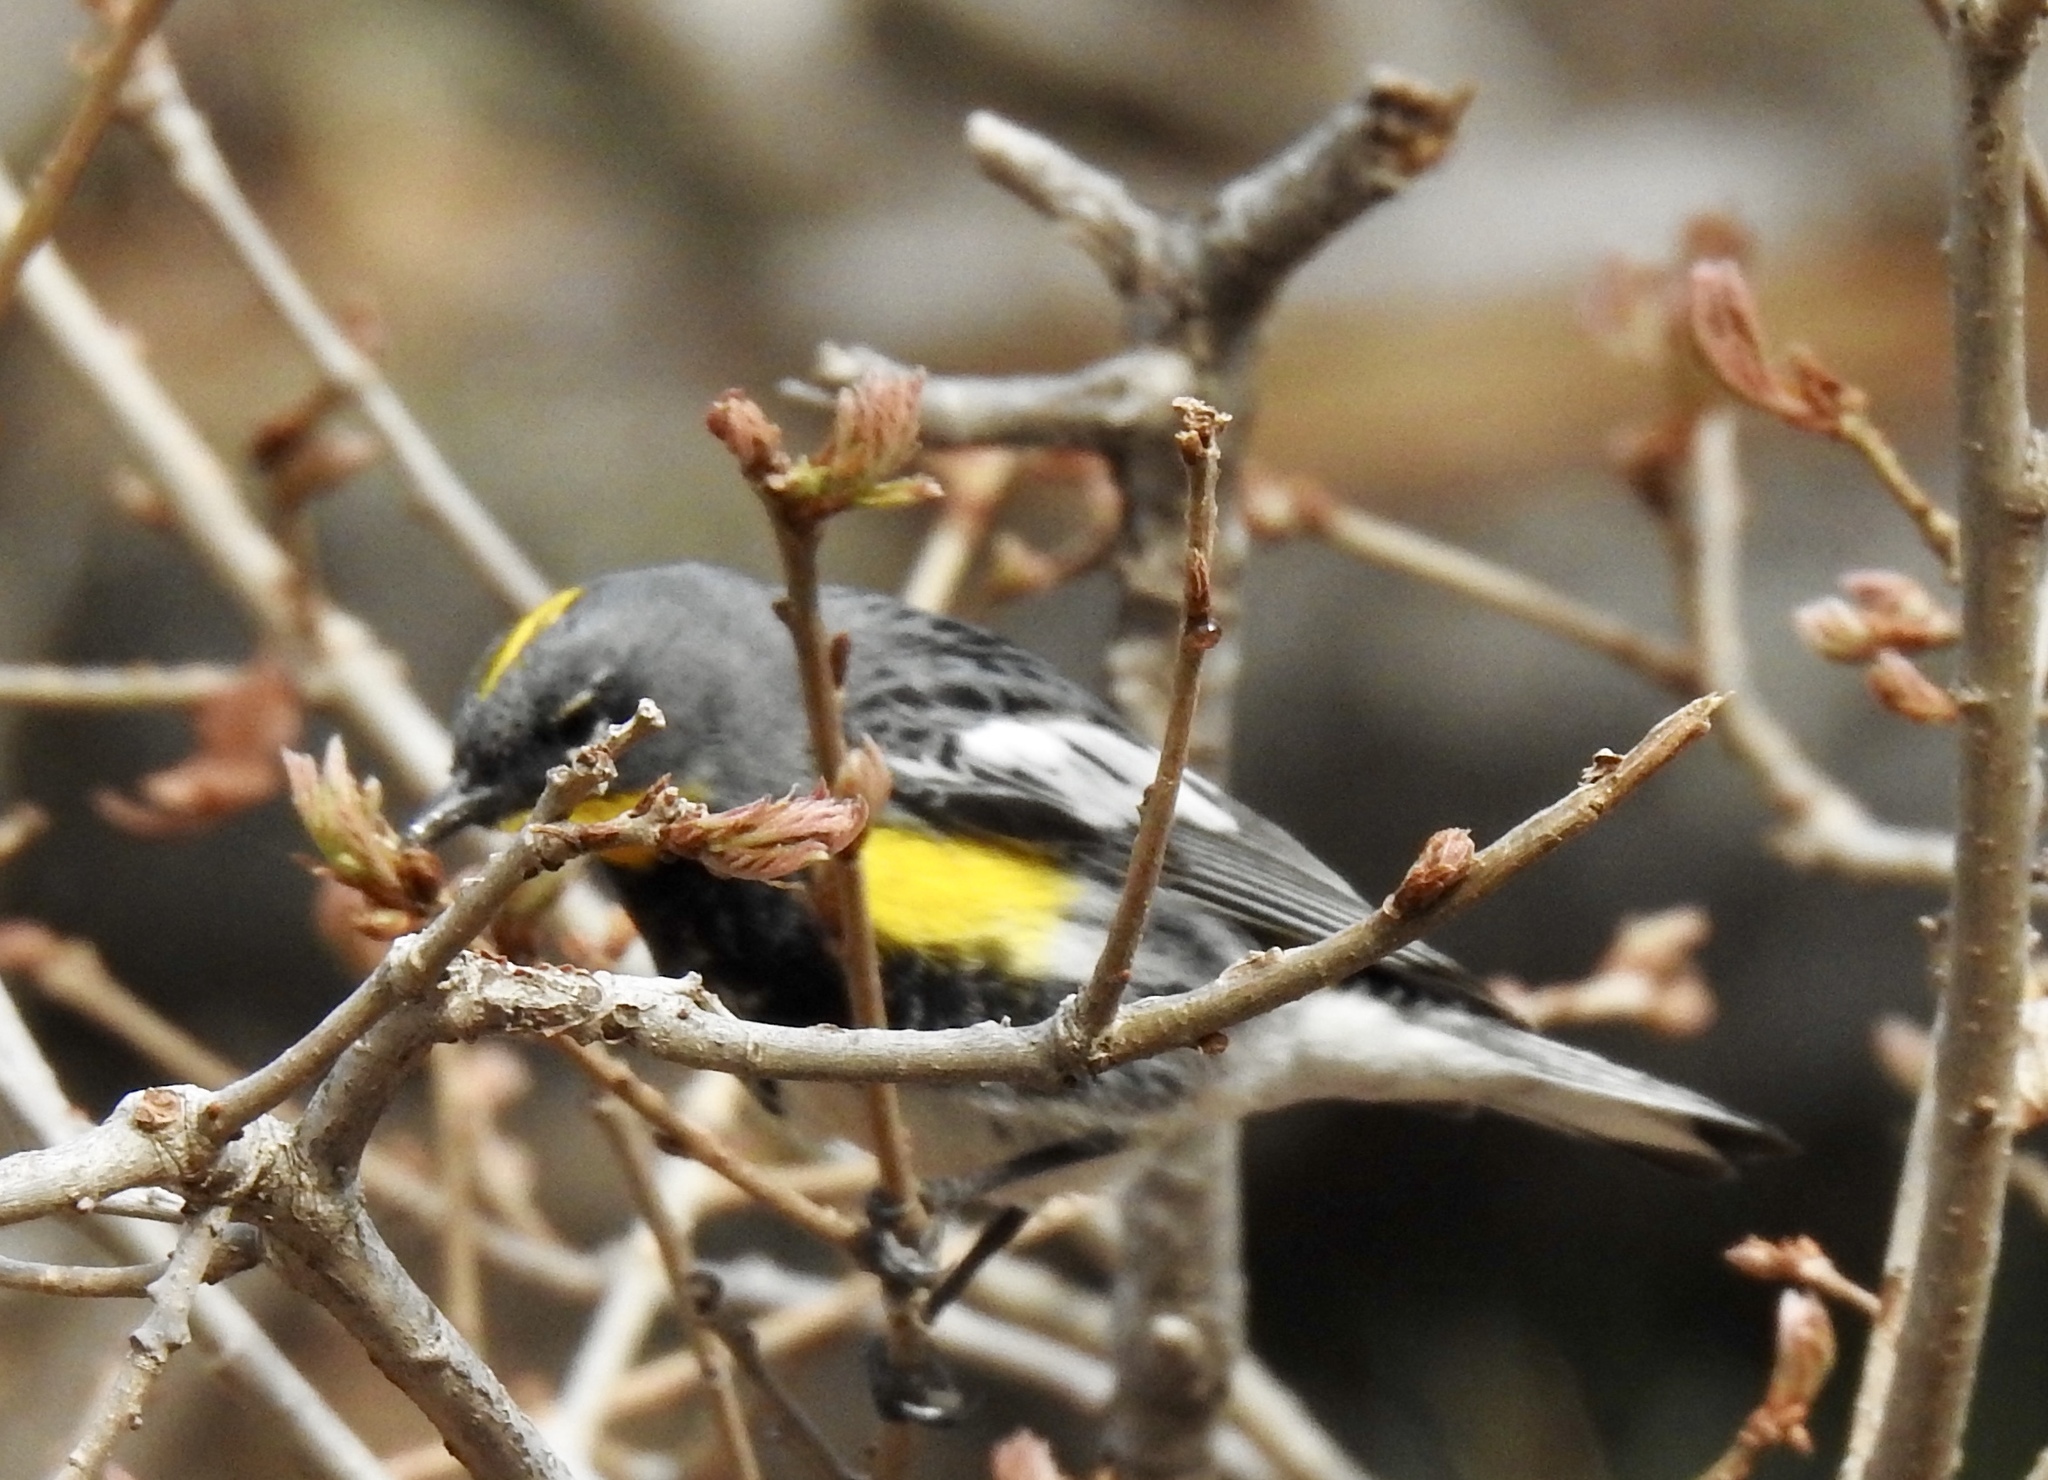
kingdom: Animalia
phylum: Chordata
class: Aves
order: Passeriformes
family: Parulidae
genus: Setophaga
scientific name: Setophaga coronata
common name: Myrtle warbler
